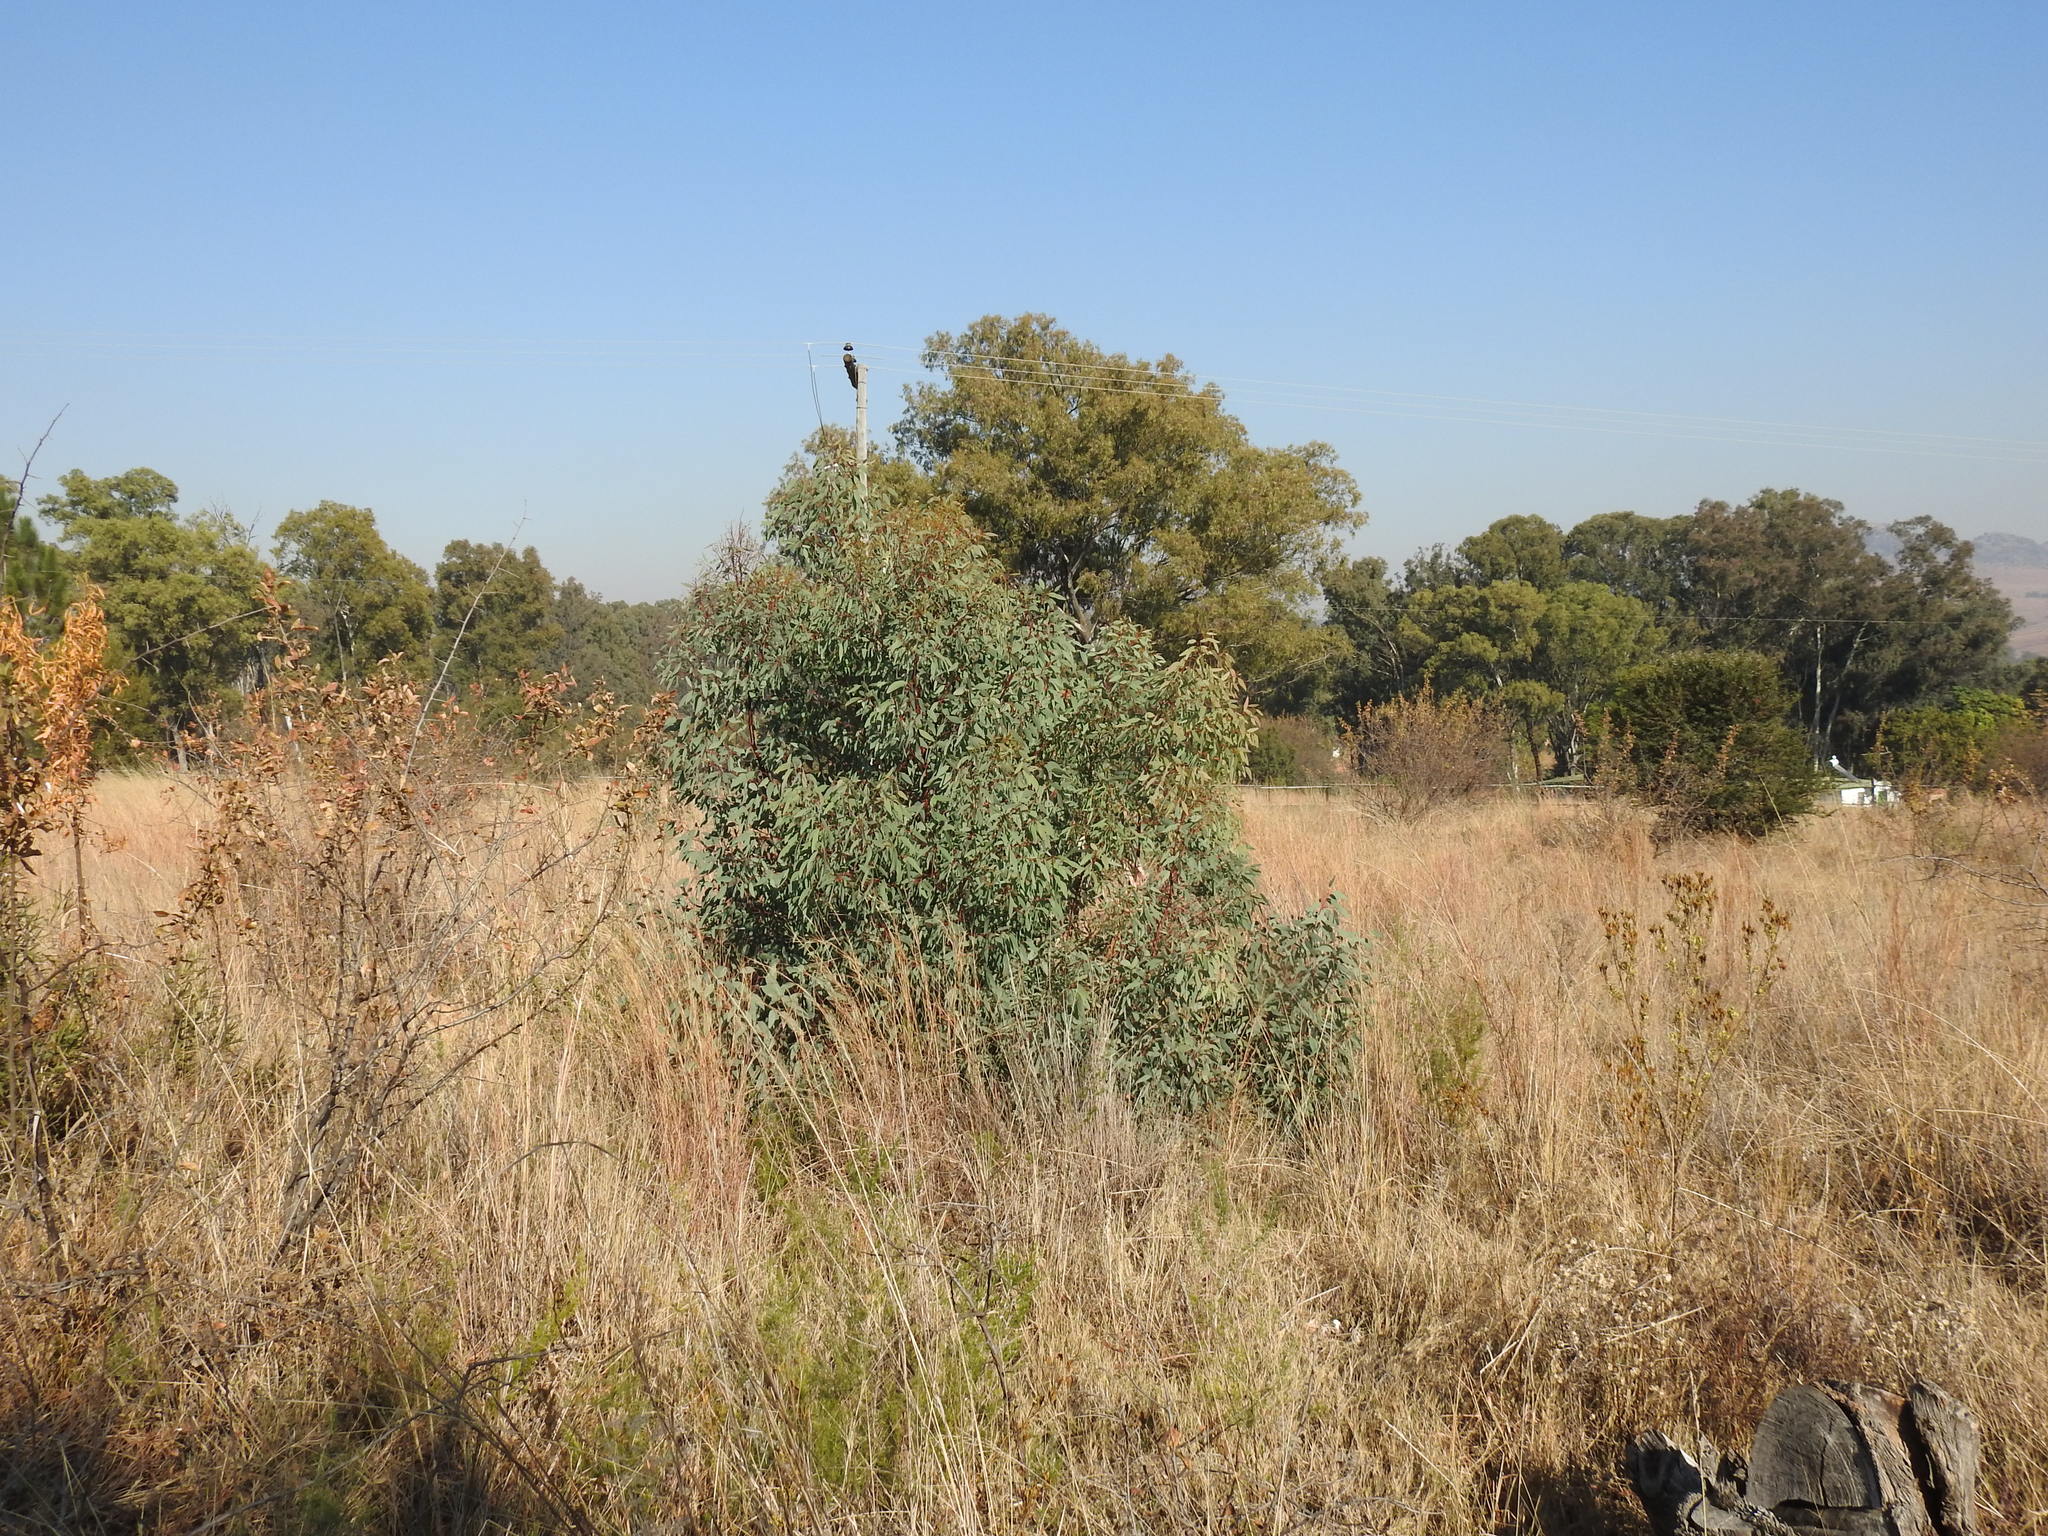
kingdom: Plantae
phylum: Tracheophyta
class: Magnoliopsida
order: Myrtales
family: Myrtaceae
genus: Eucalyptus
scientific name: Eucalyptus camaldulensis
